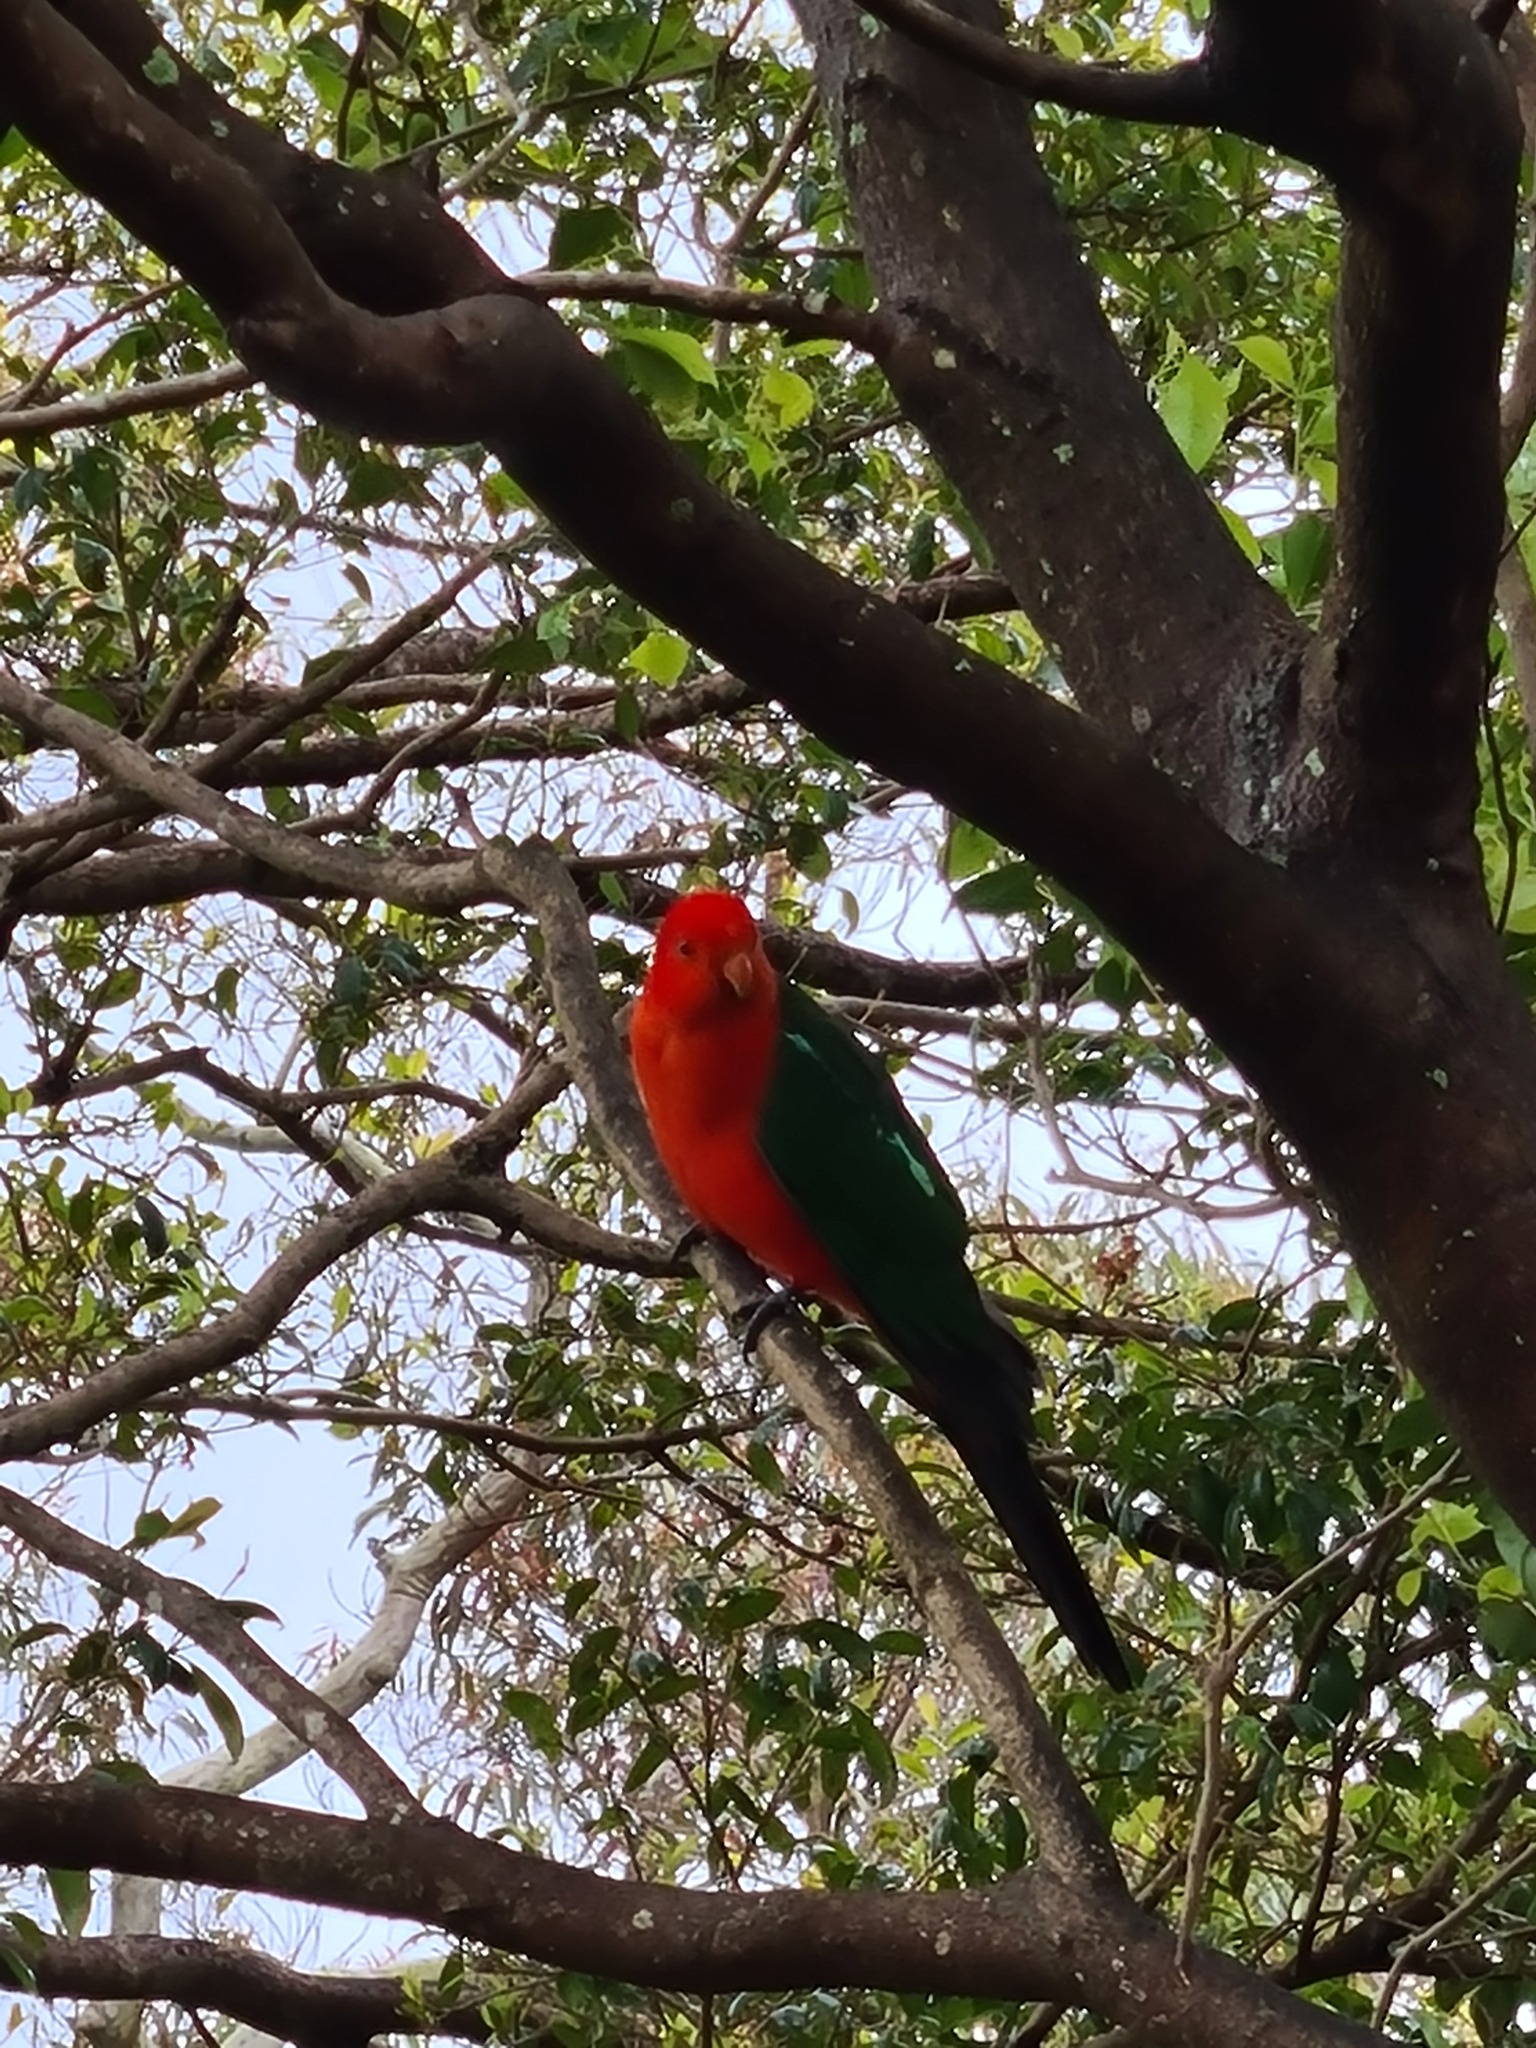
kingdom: Animalia
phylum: Chordata
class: Aves
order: Psittaciformes
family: Psittacidae
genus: Alisterus
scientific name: Alisterus scapularis
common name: Australian king parrot
